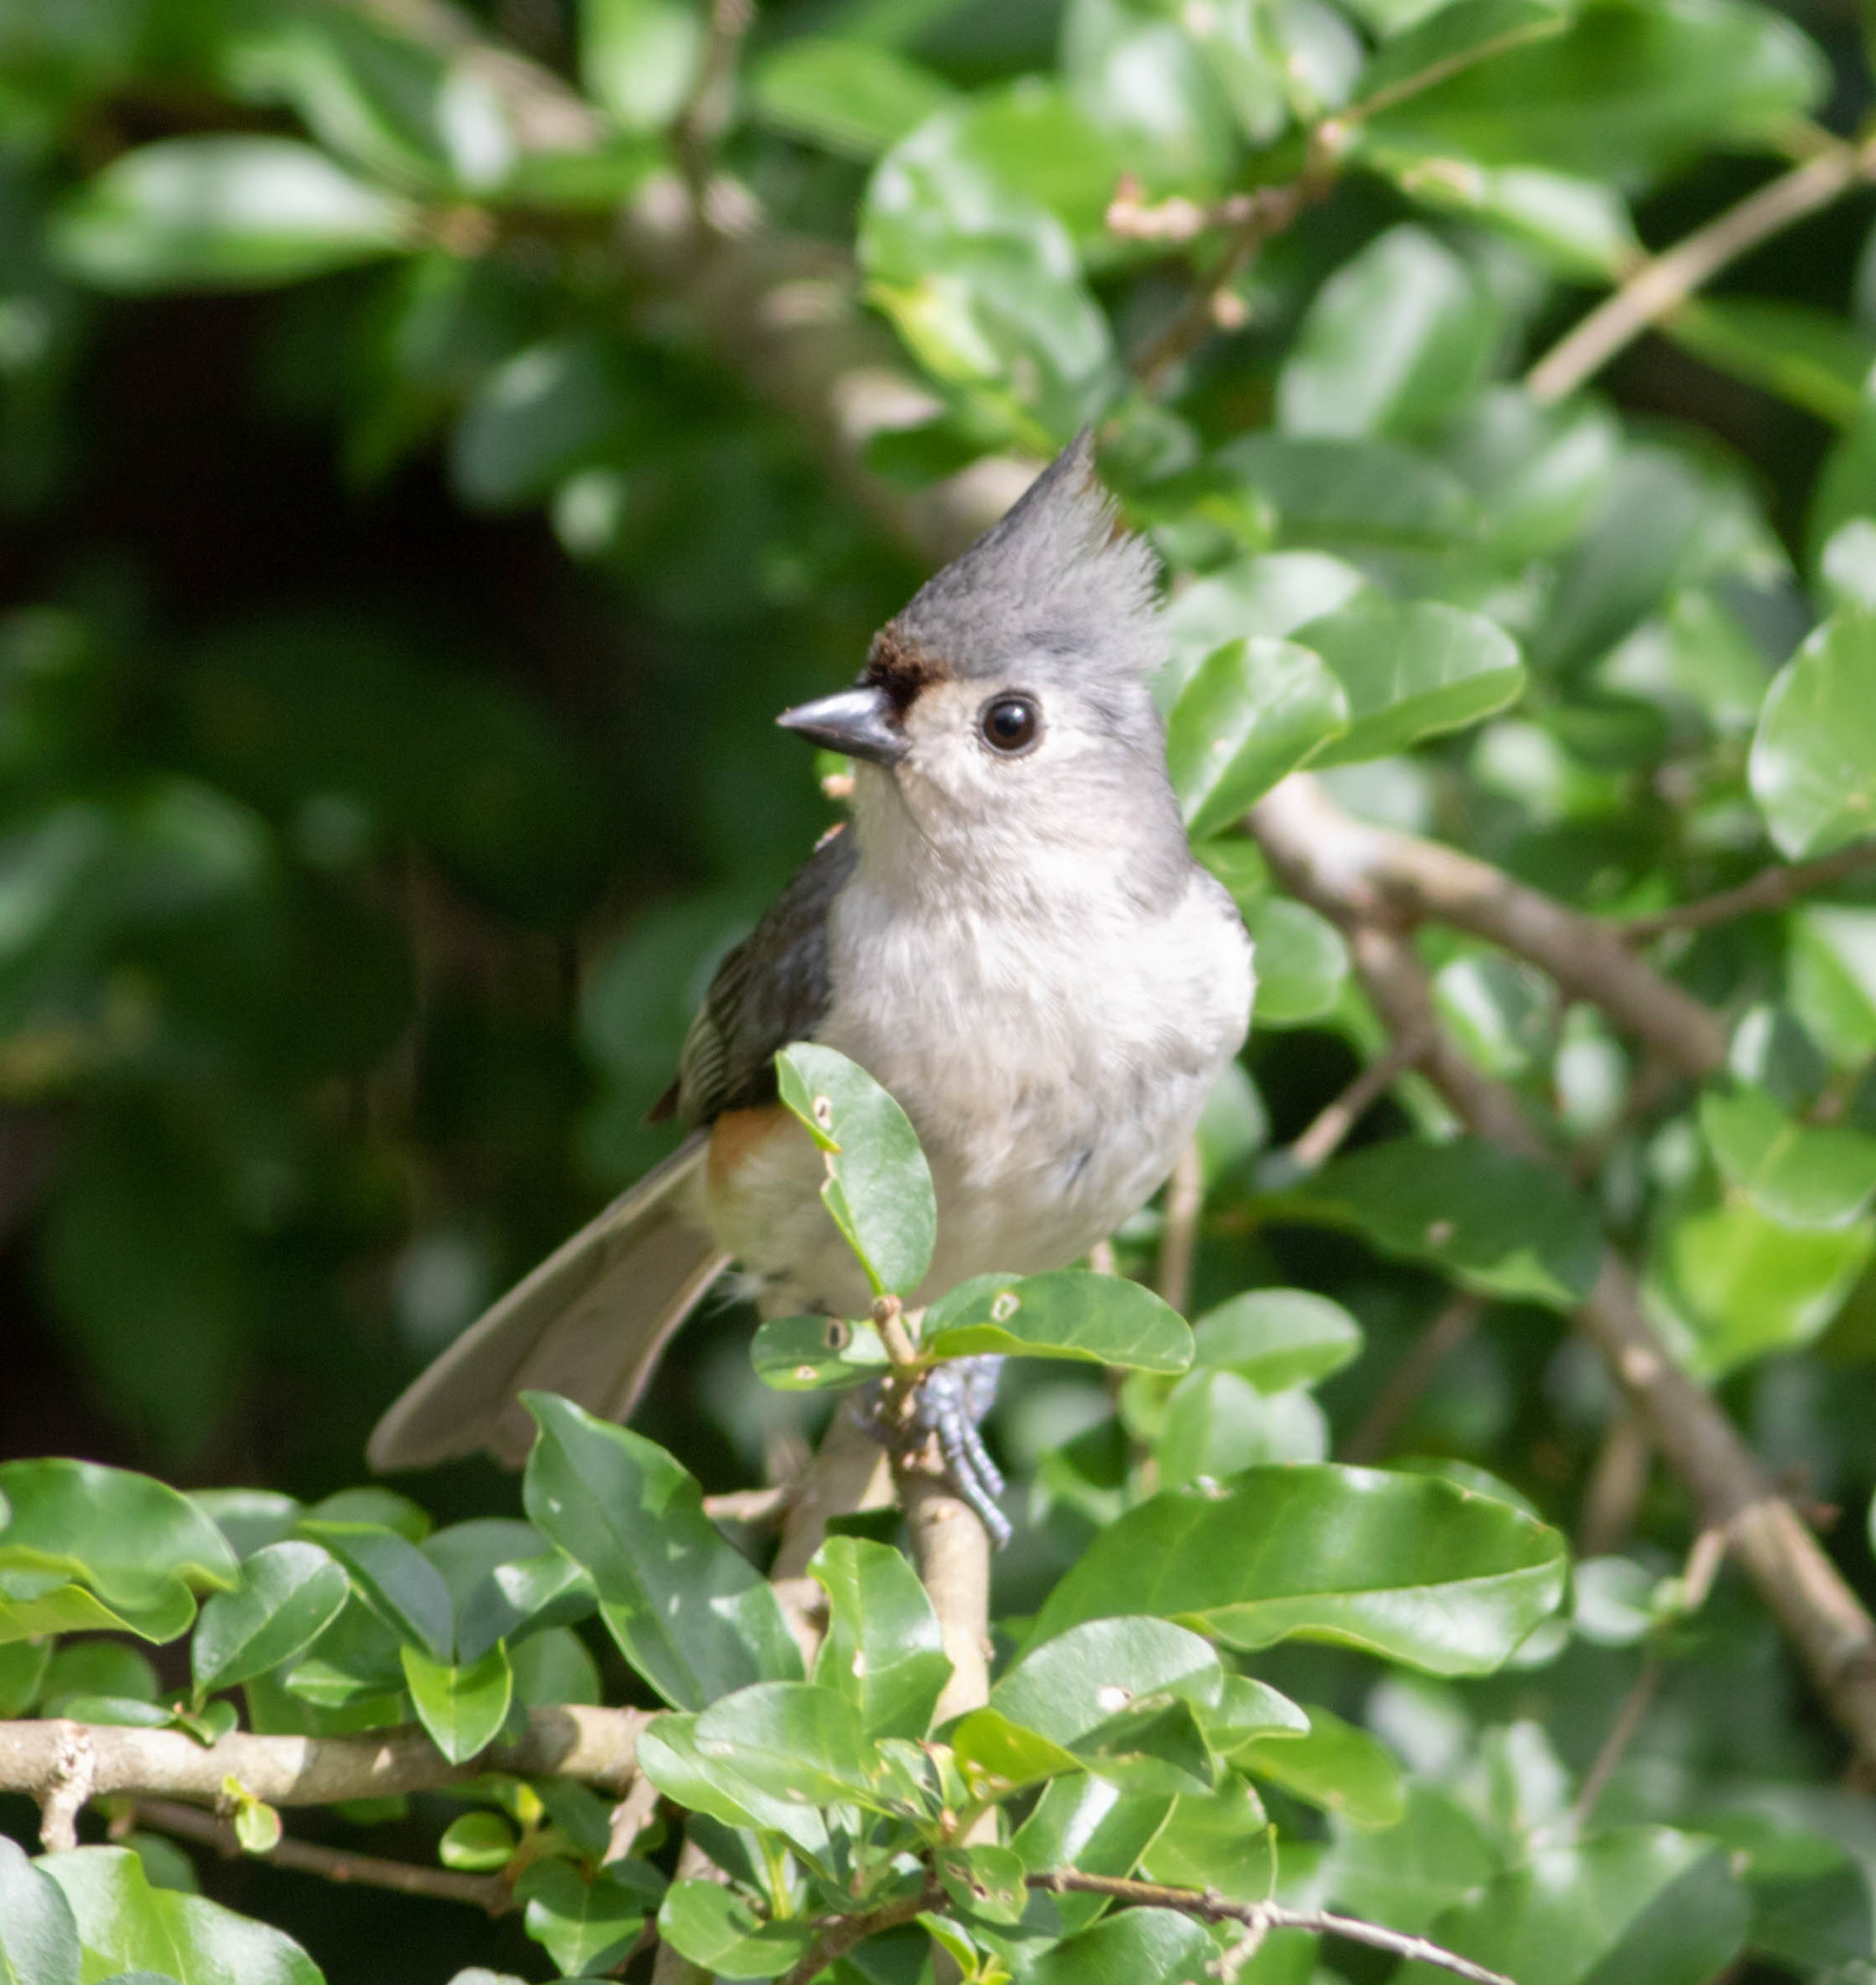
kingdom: Animalia
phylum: Chordata
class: Aves
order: Passeriformes
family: Paridae
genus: Baeolophus
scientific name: Baeolophus bicolor
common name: Tufted titmouse
